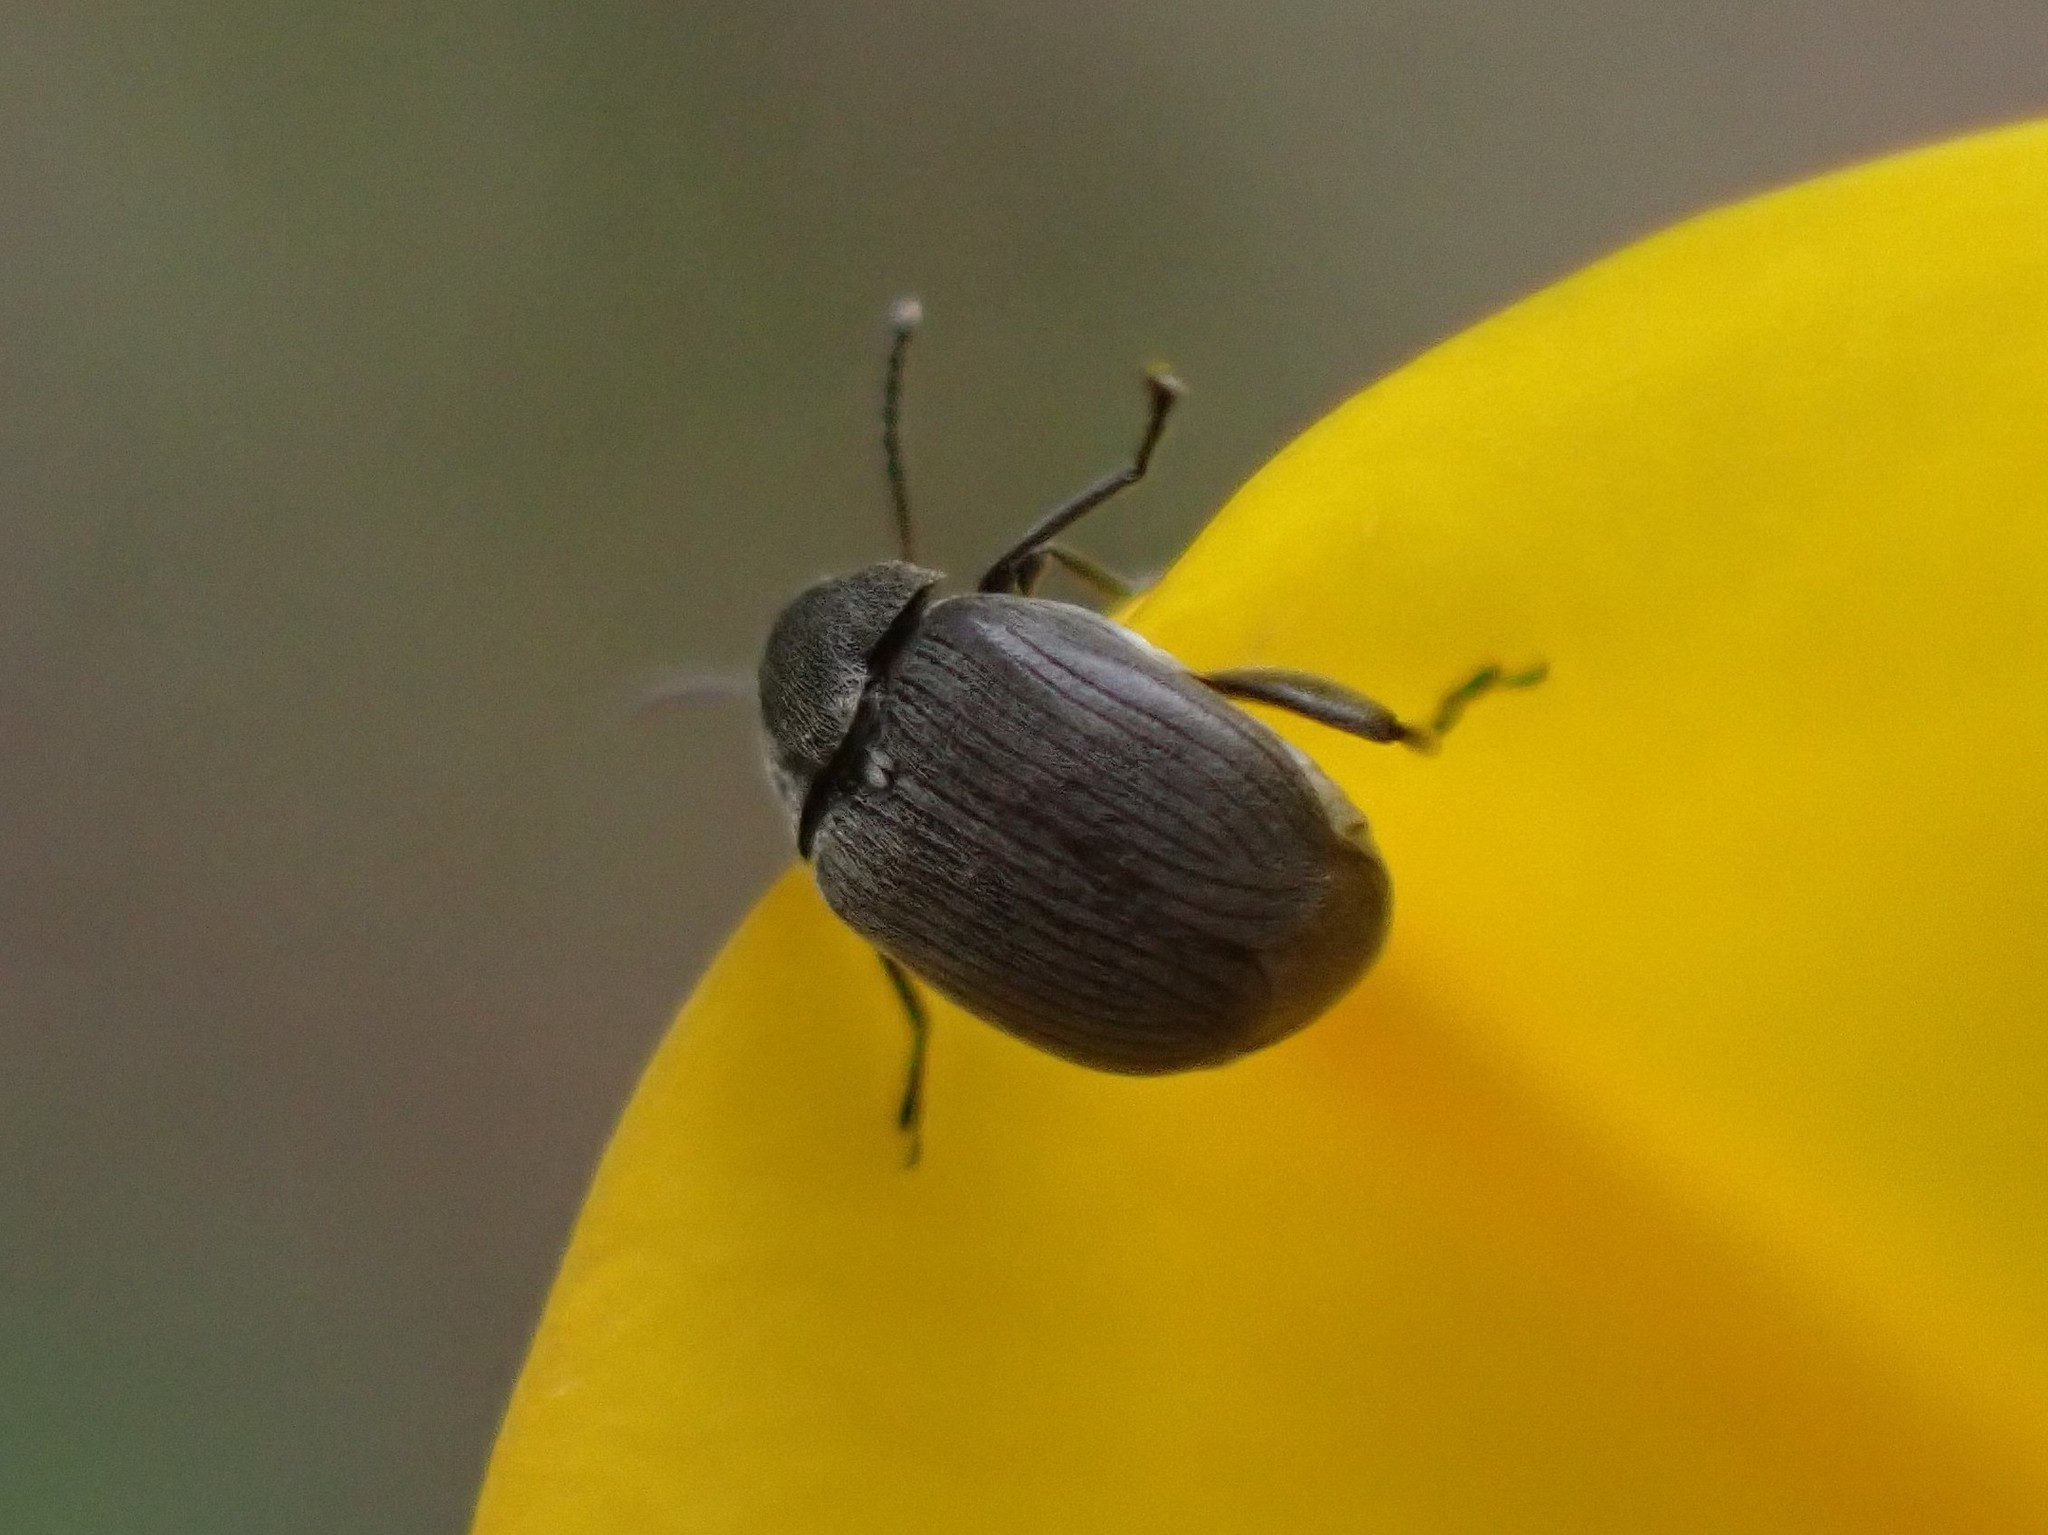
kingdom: Animalia
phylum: Arthropoda
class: Insecta
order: Coleoptera
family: Chrysomelidae
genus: Bruchidius
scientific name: Bruchidius villosus
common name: Scotch broom bruchid
